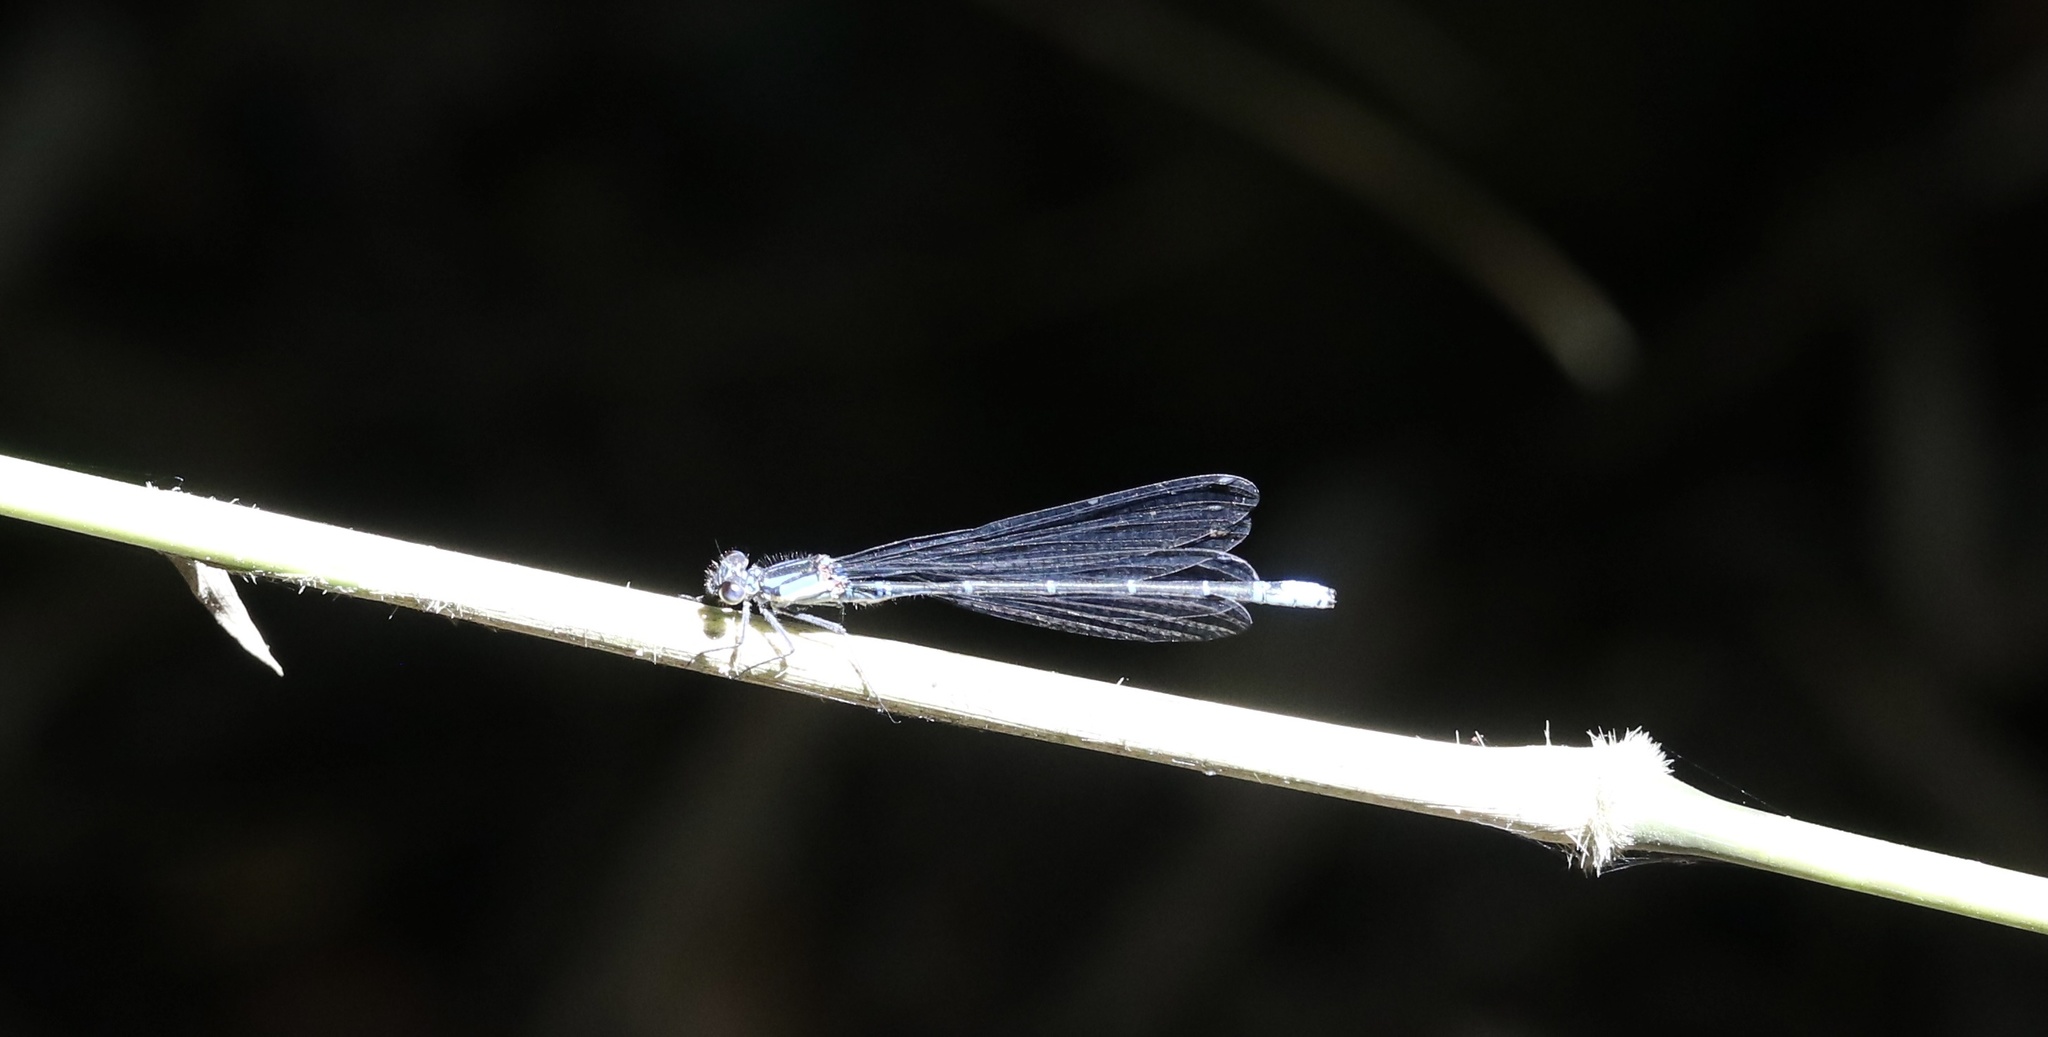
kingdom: Animalia
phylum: Arthropoda
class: Insecta
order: Odonata
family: Coenagrionidae
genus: Antiagrion
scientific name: Antiagrion grinbergsi
